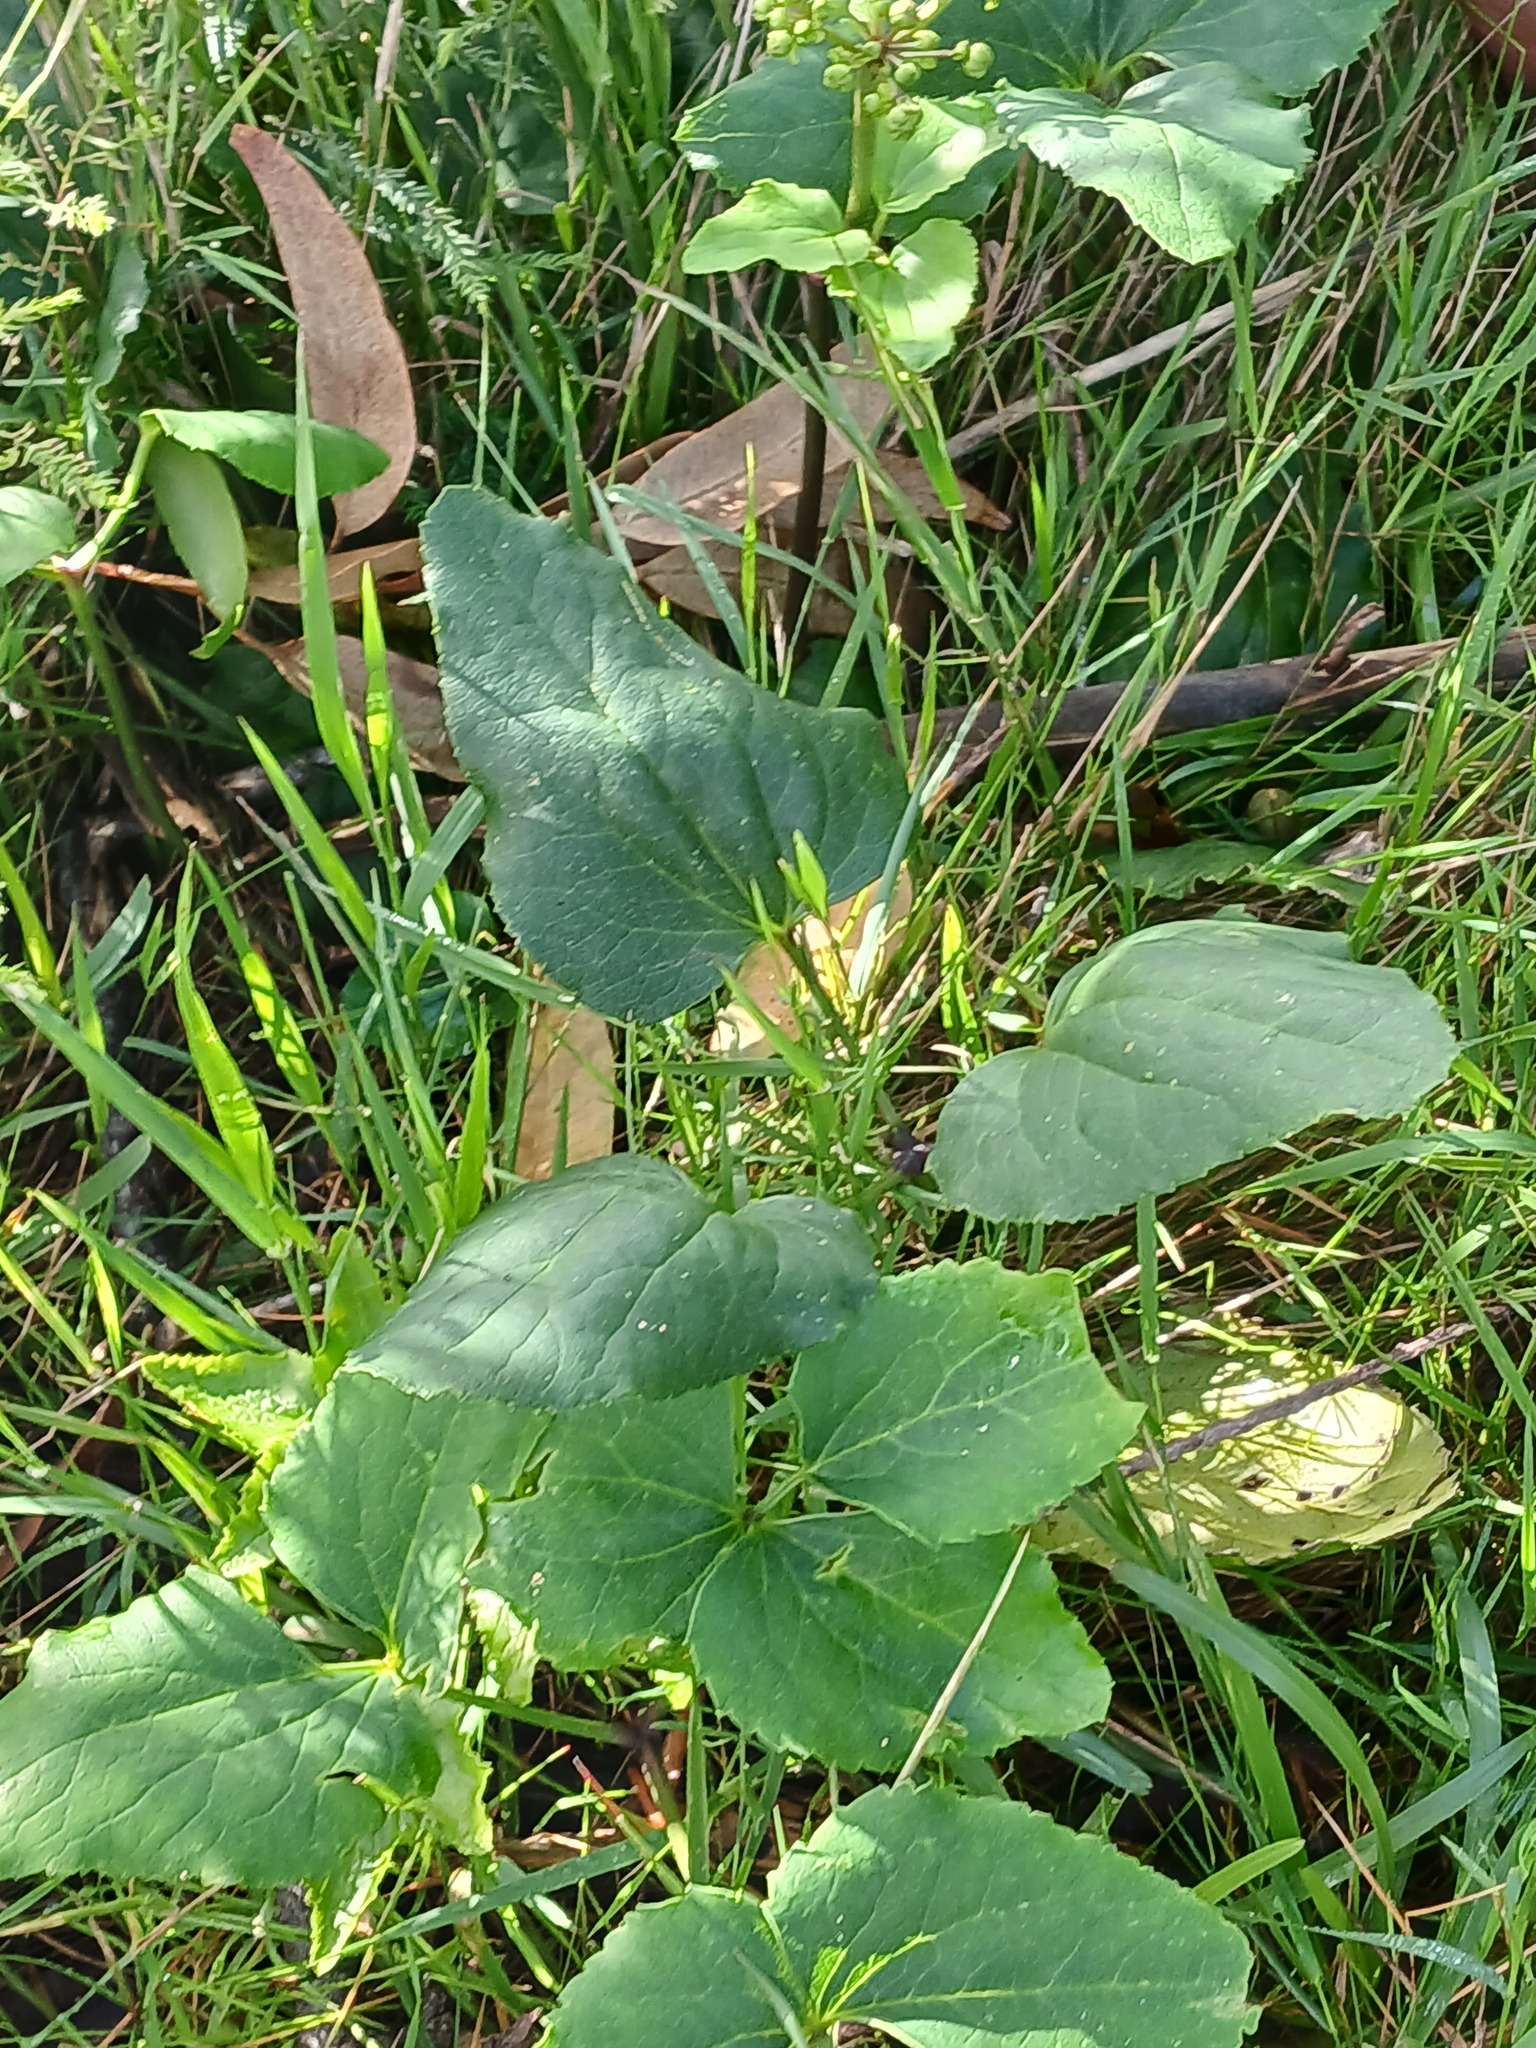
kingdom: Plantae
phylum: Tracheophyta
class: Magnoliopsida
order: Ranunculales
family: Ranunculaceae
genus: Knowltonia
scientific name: Knowltonia vesicatoria
